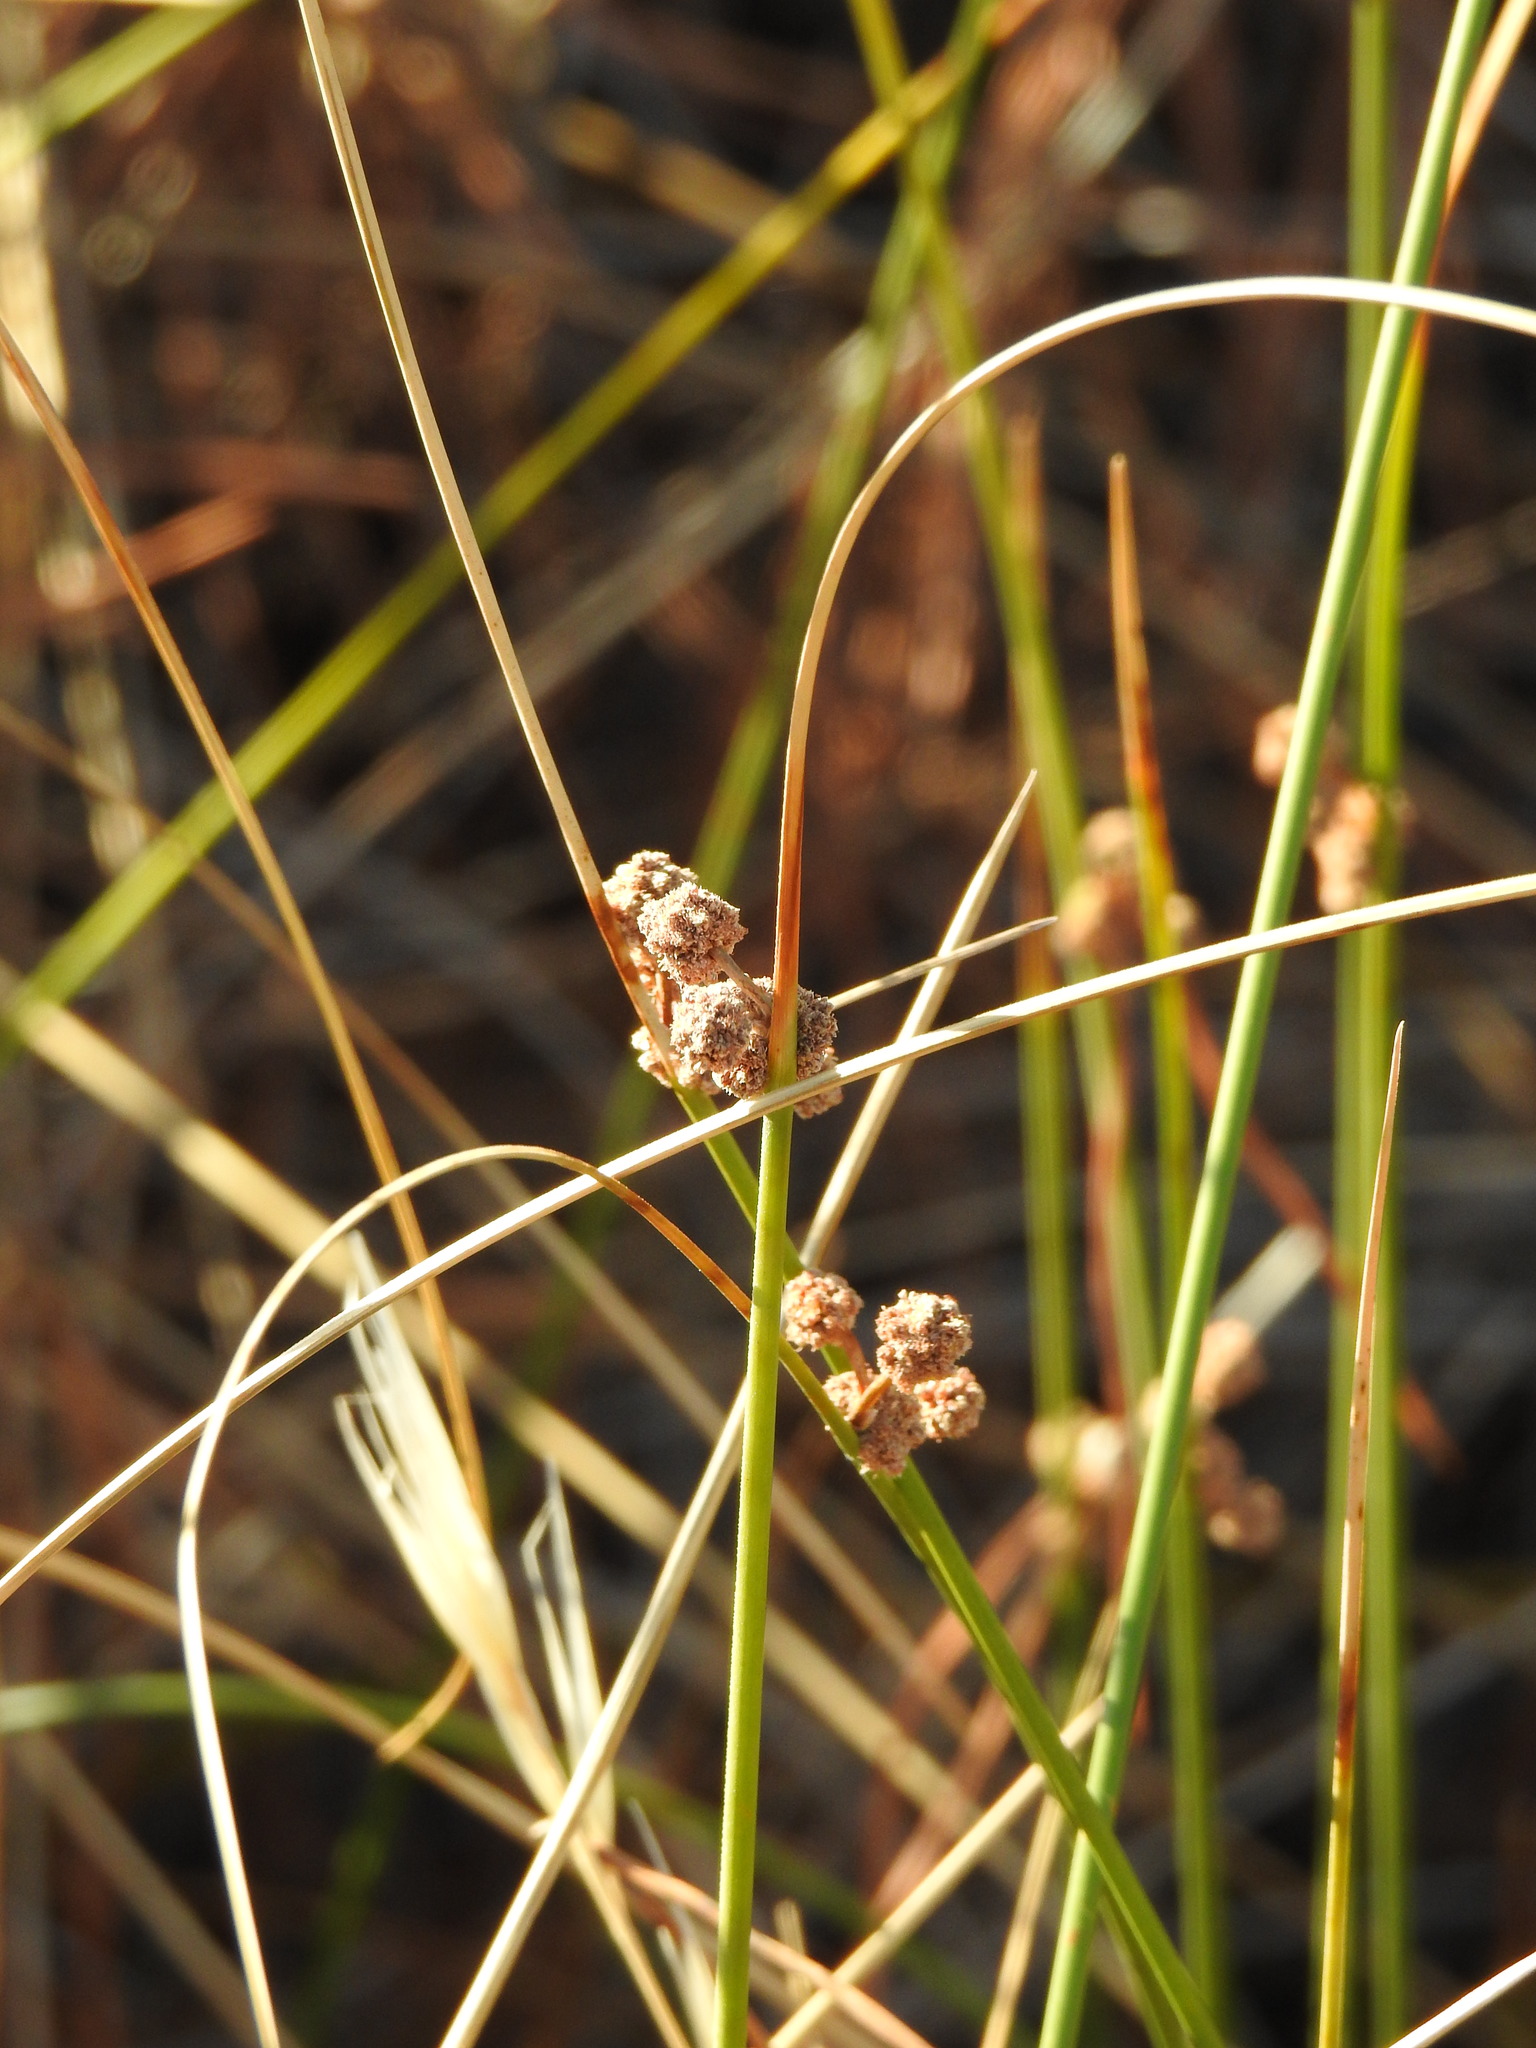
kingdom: Plantae
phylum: Tracheophyta
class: Liliopsida
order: Poales
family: Cyperaceae
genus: Scirpoides
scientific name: Scirpoides holoschoenus
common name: Round-headed club-rush
